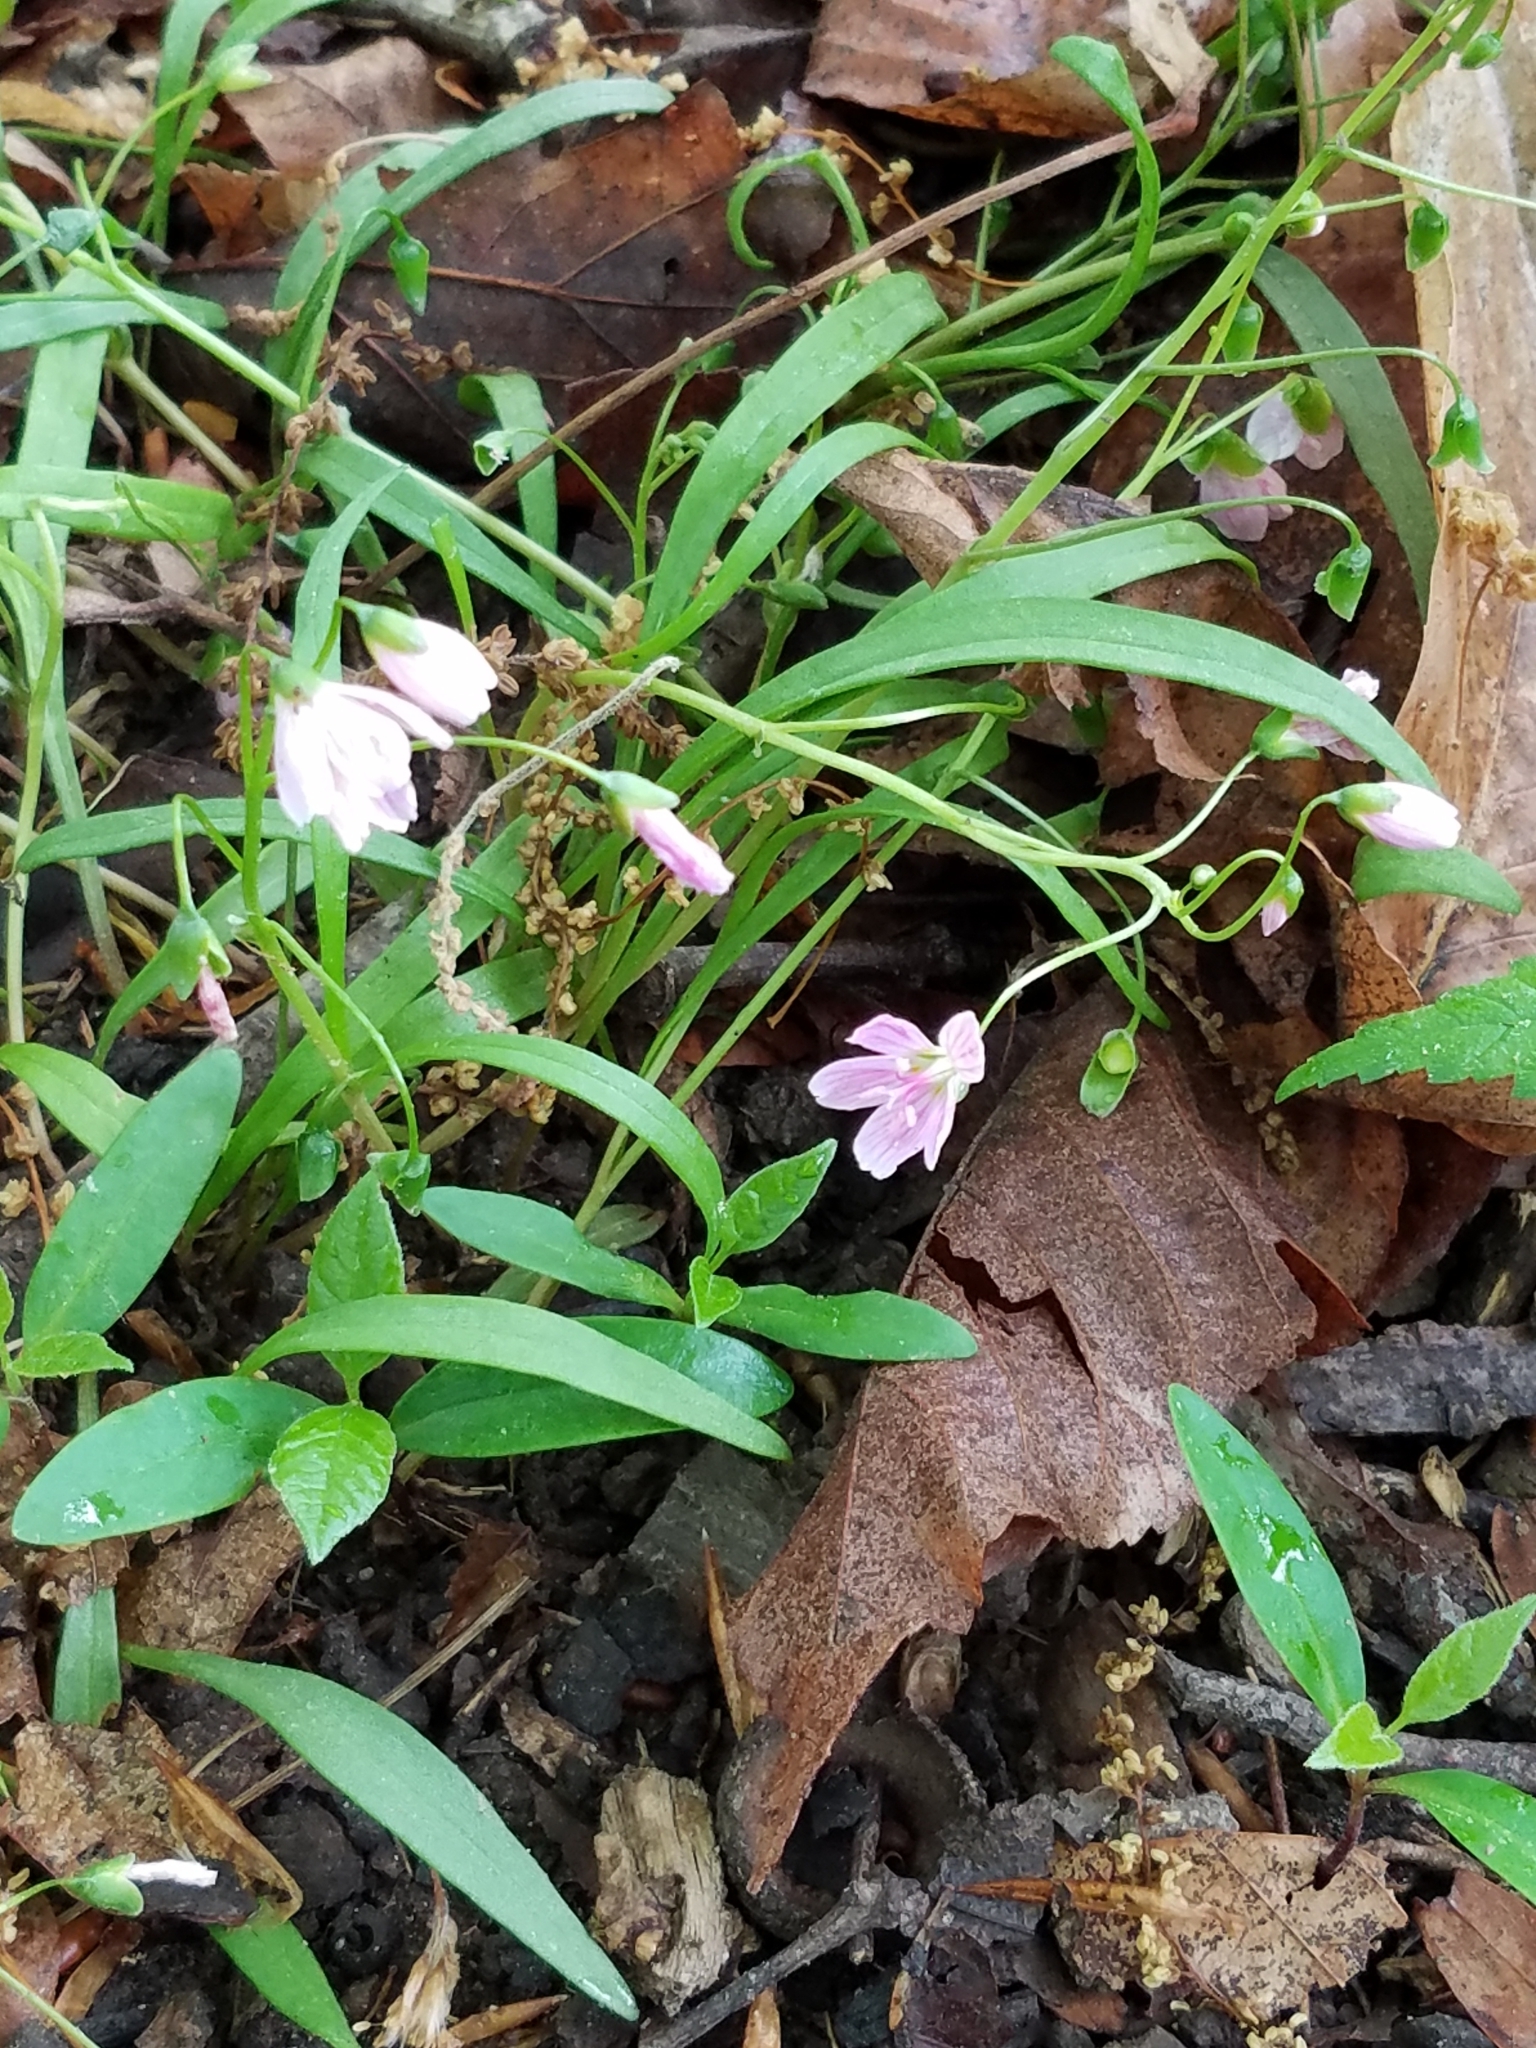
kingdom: Plantae
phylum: Tracheophyta
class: Magnoliopsida
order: Caryophyllales
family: Montiaceae
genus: Claytonia
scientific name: Claytonia virginica
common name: Virginia springbeauty
